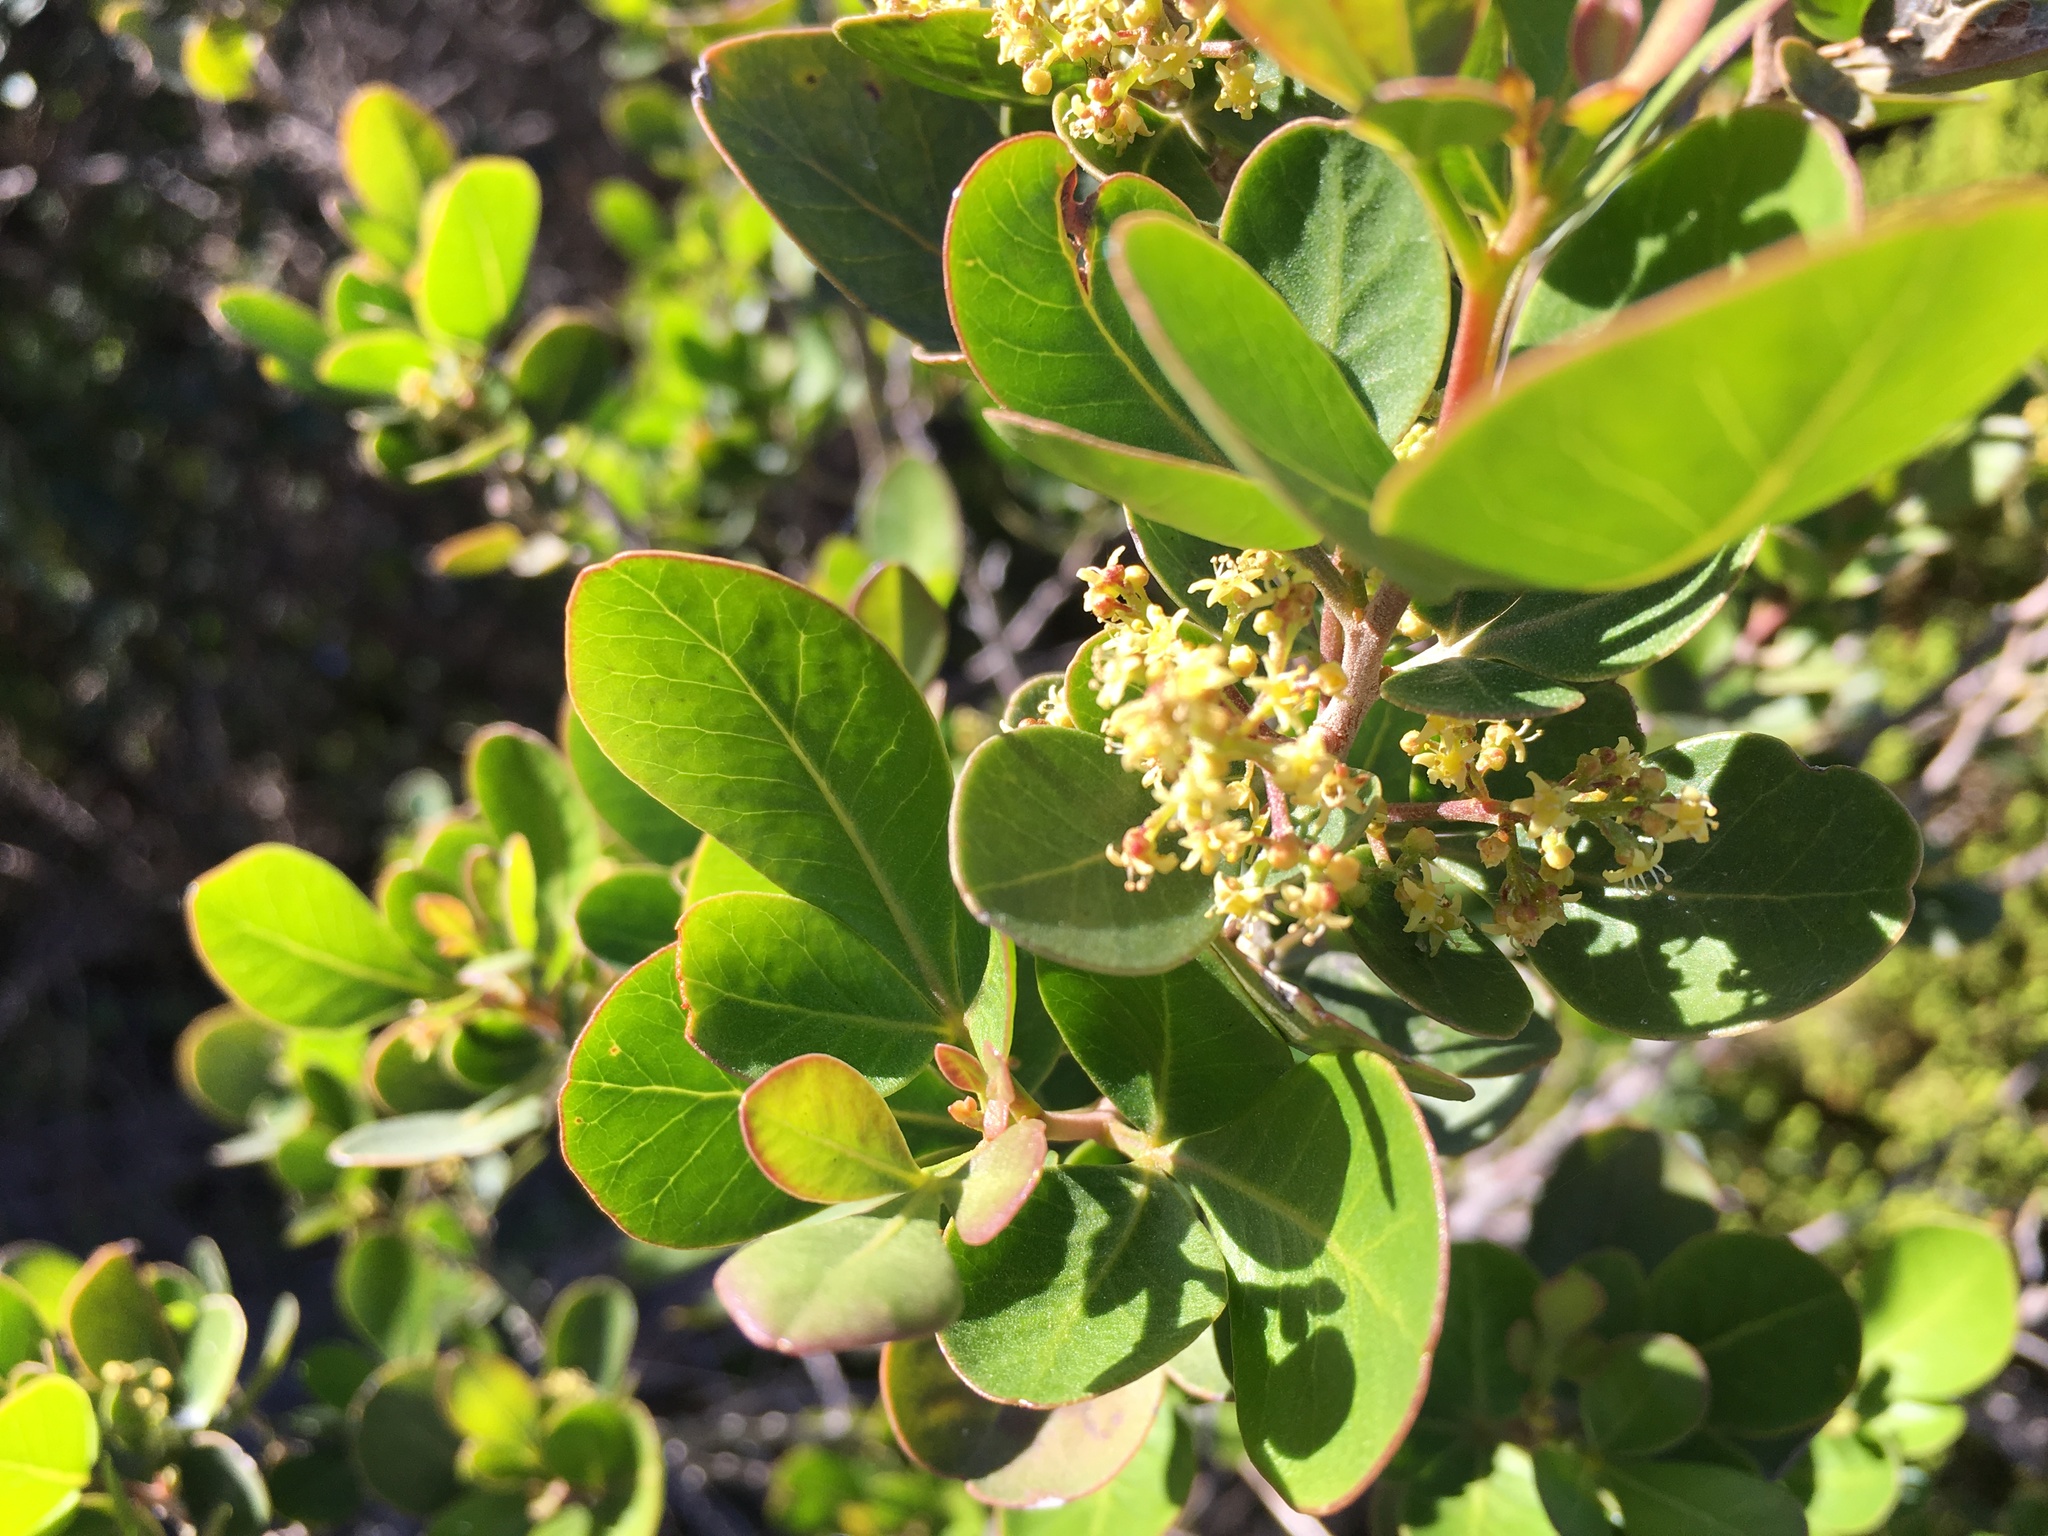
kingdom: Plantae
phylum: Tracheophyta
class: Magnoliopsida
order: Sapindales
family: Anacardiaceae
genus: Searsia
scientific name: Searsia lucida
